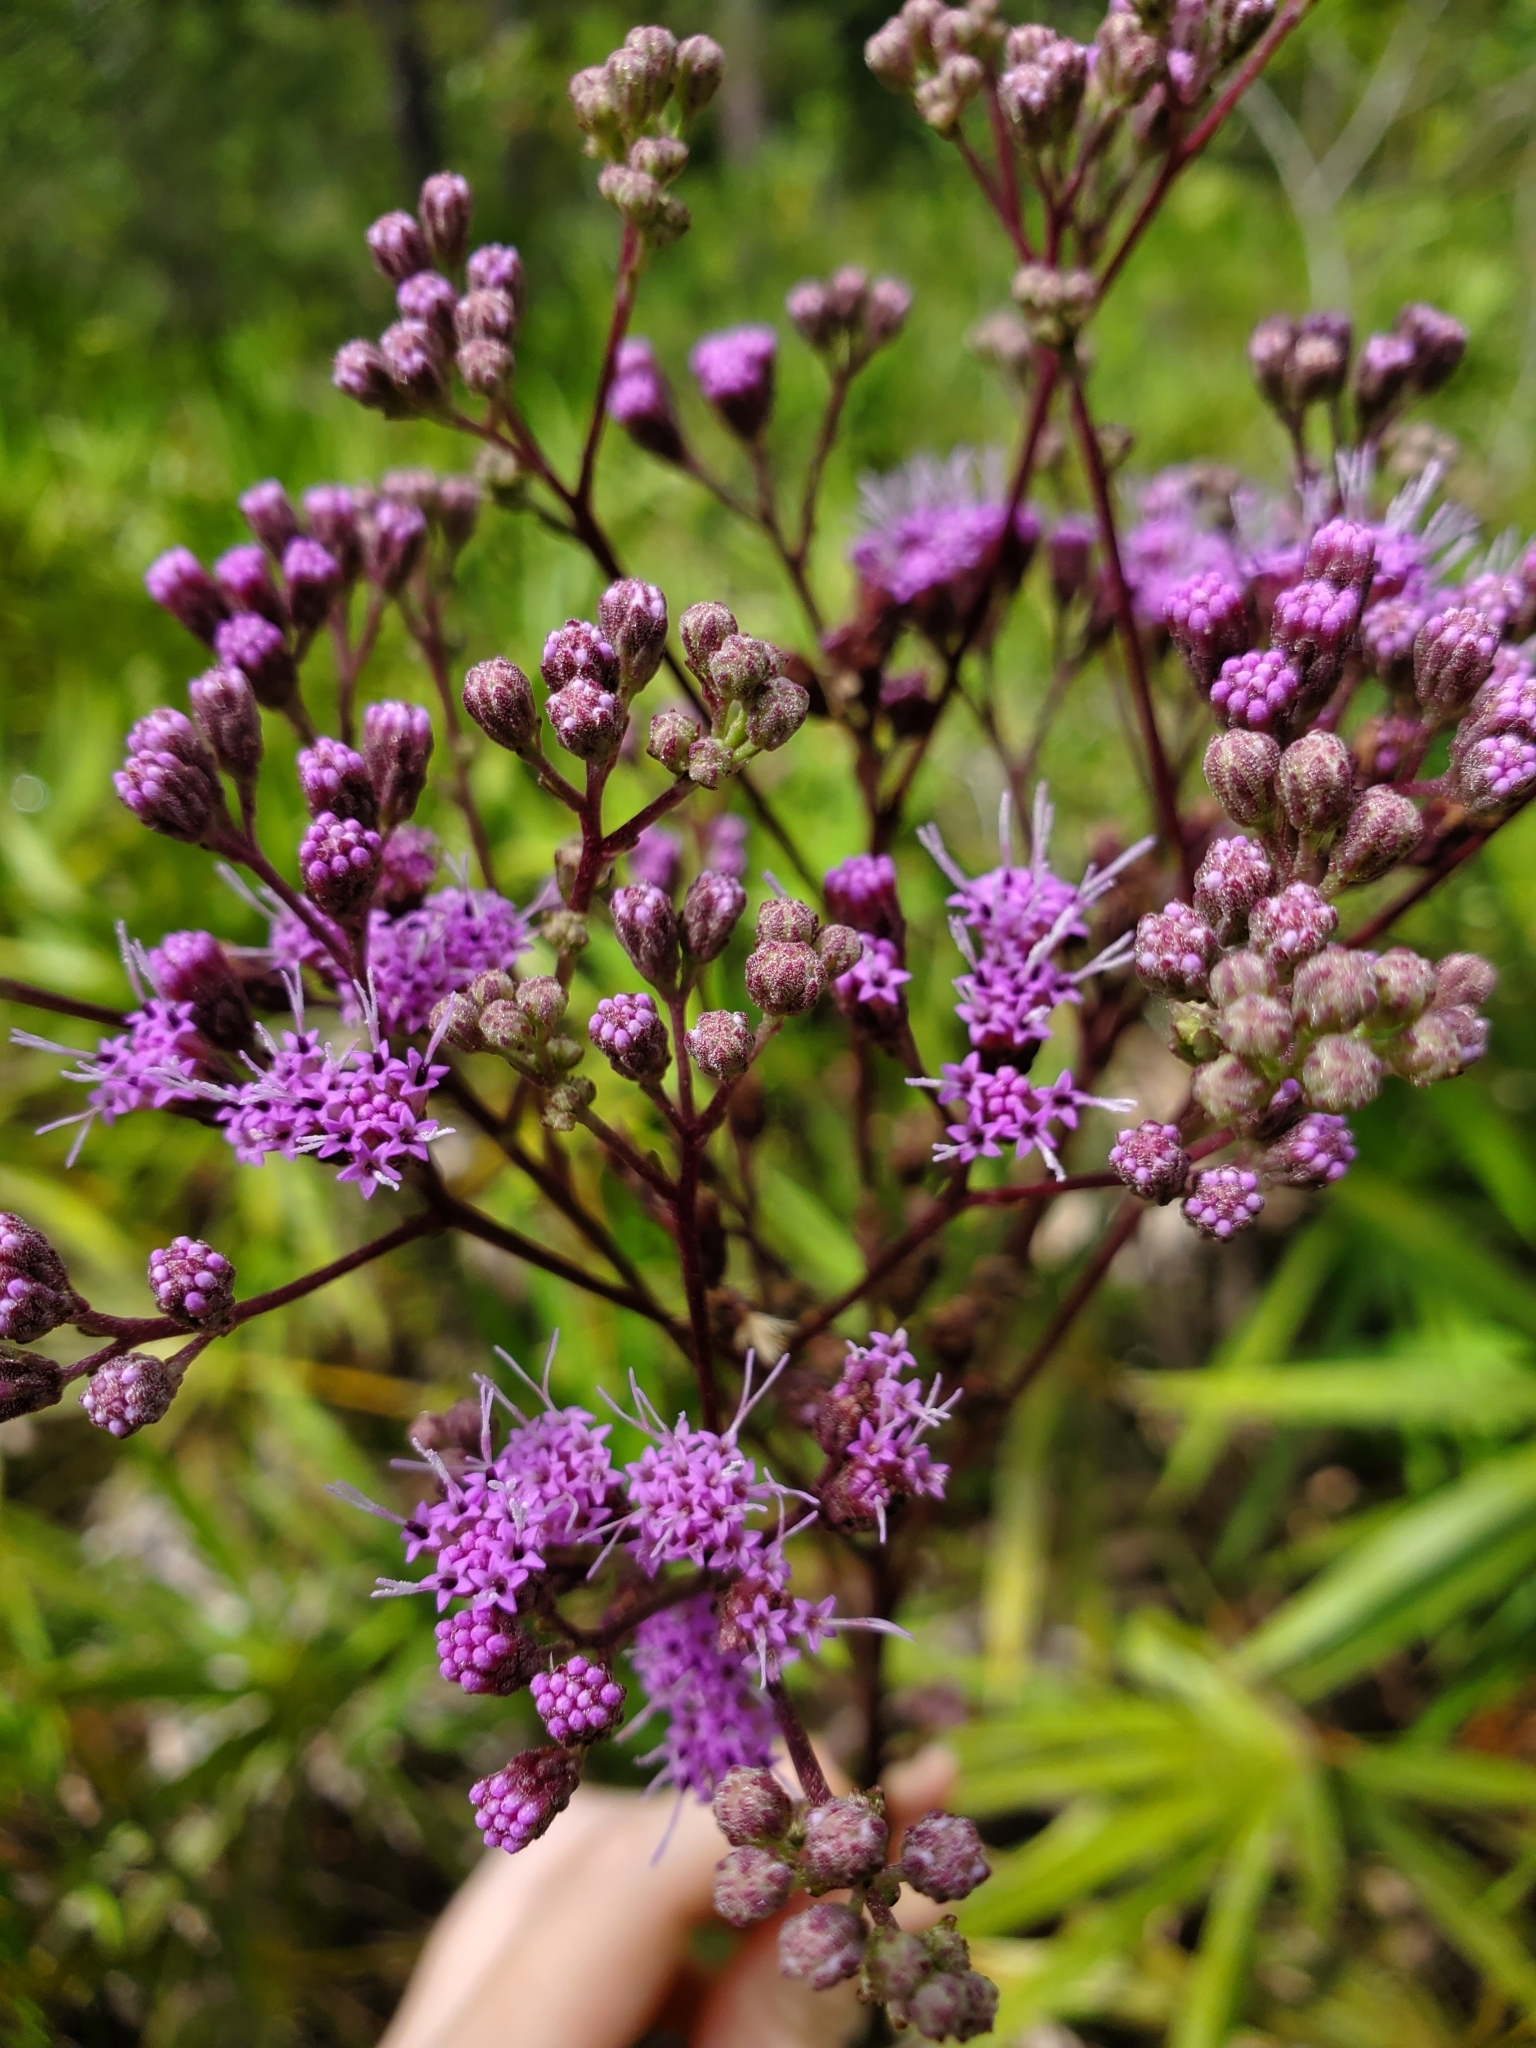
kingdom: Plantae
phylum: Tracheophyta
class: Magnoliopsida
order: Asterales
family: Asteraceae
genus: Carphephorus
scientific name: Carphephorus odoratissimus
